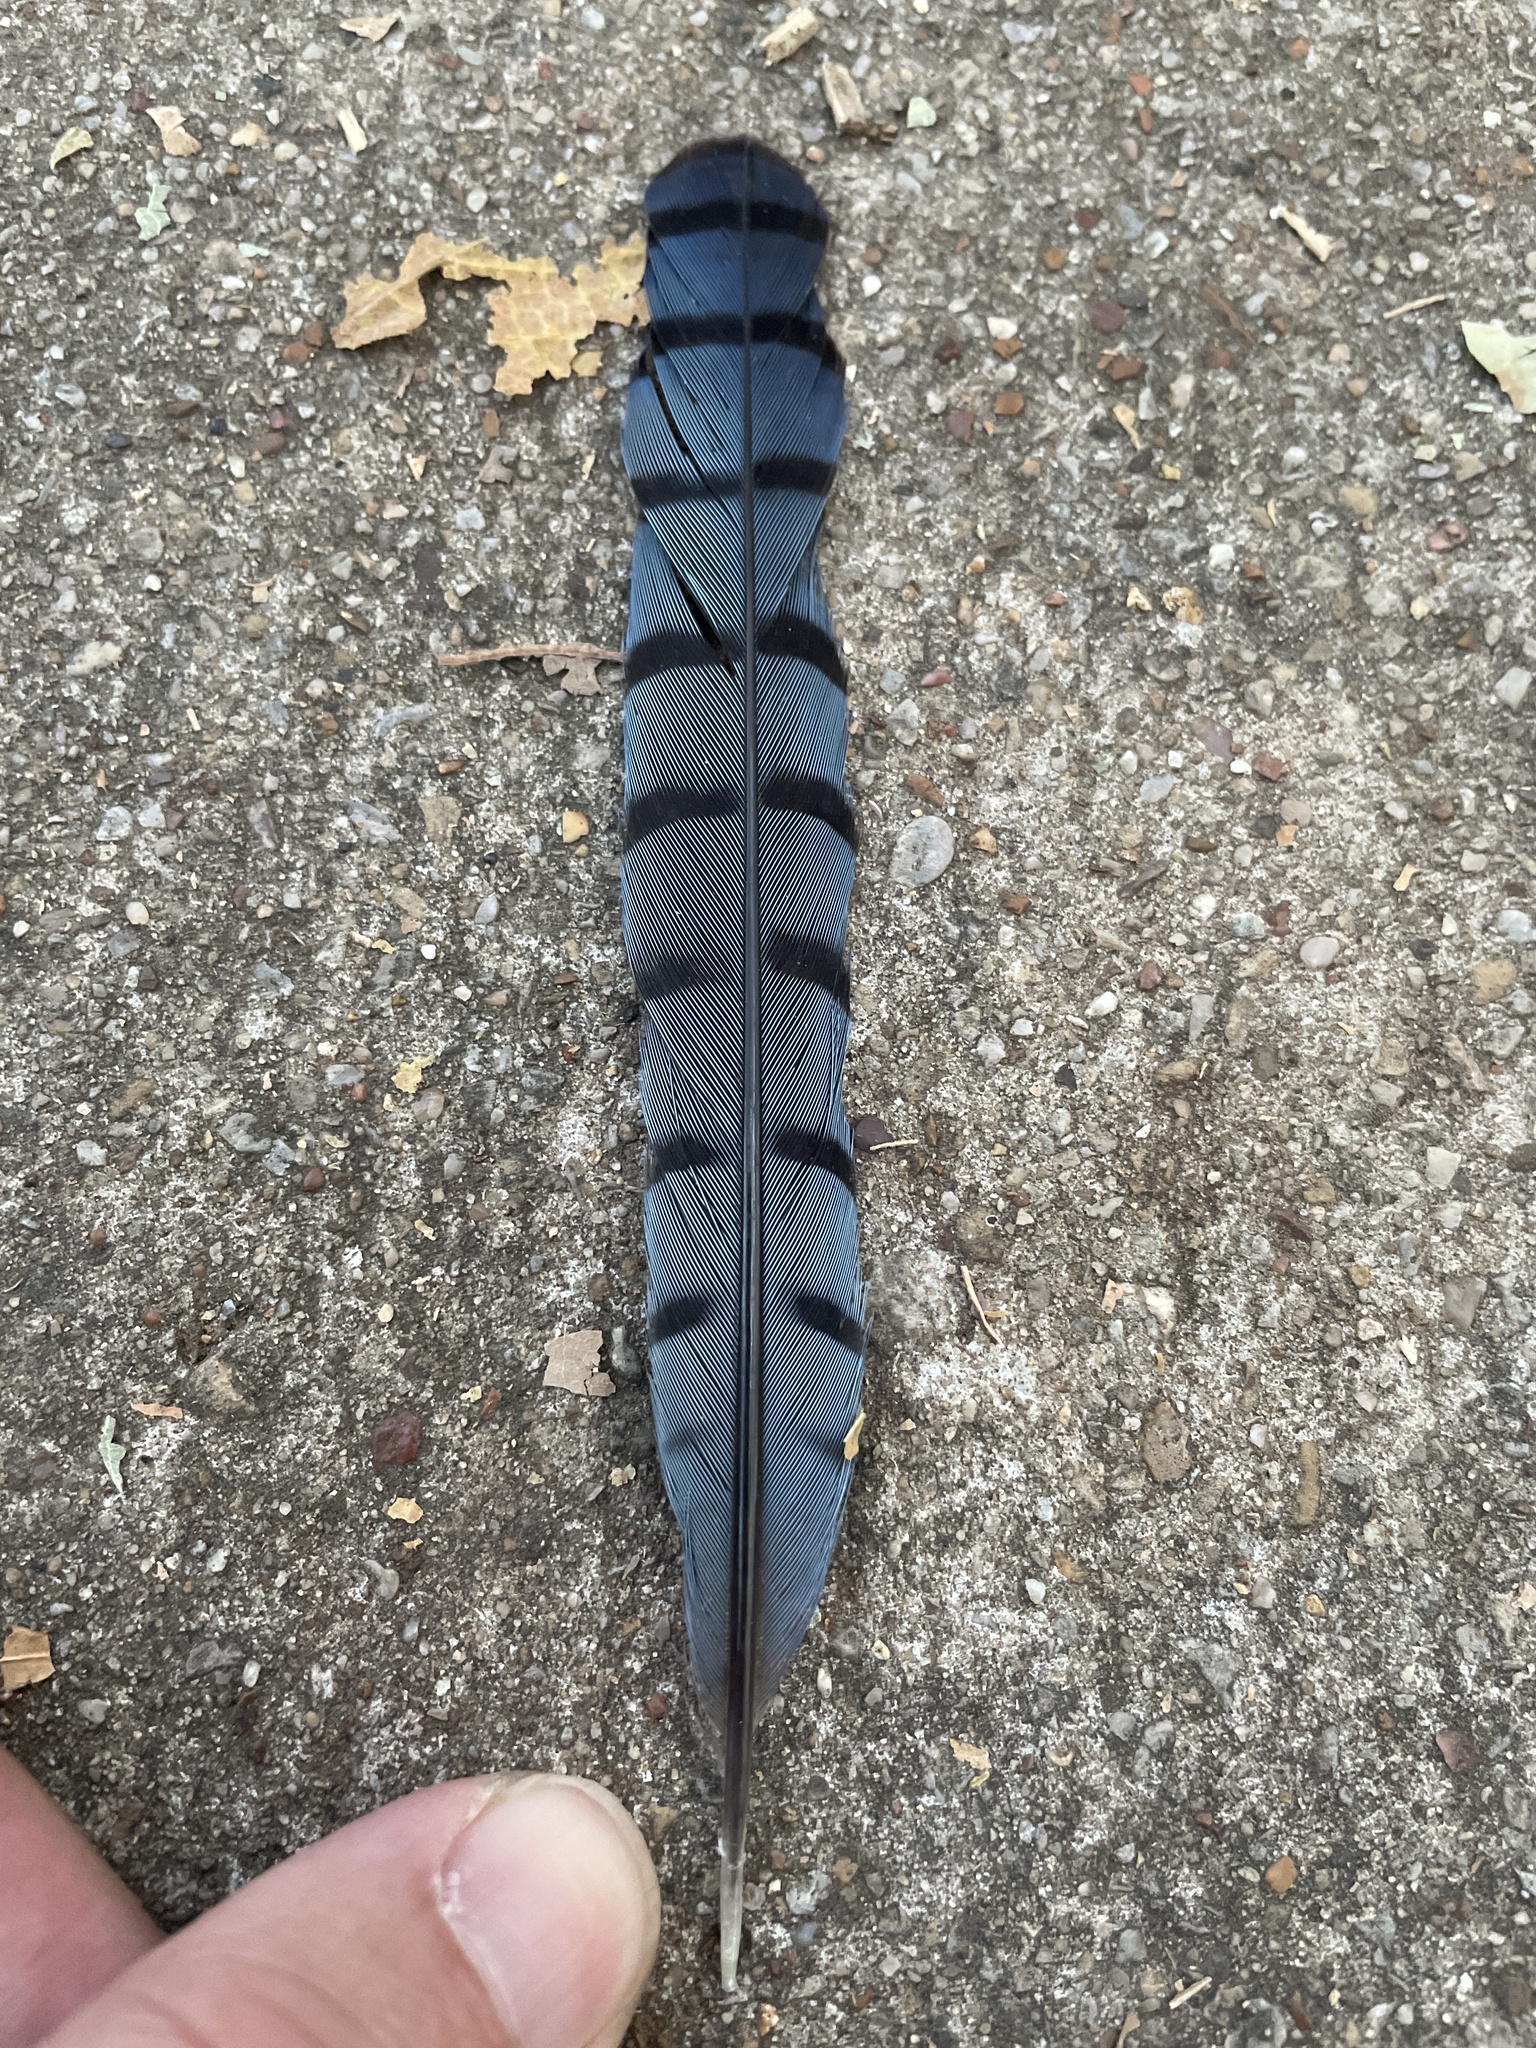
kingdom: Animalia
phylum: Chordata
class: Aves
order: Passeriformes
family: Corvidae
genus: Cyanocitta
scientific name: Cyanocitta cristata
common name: Blue jay
